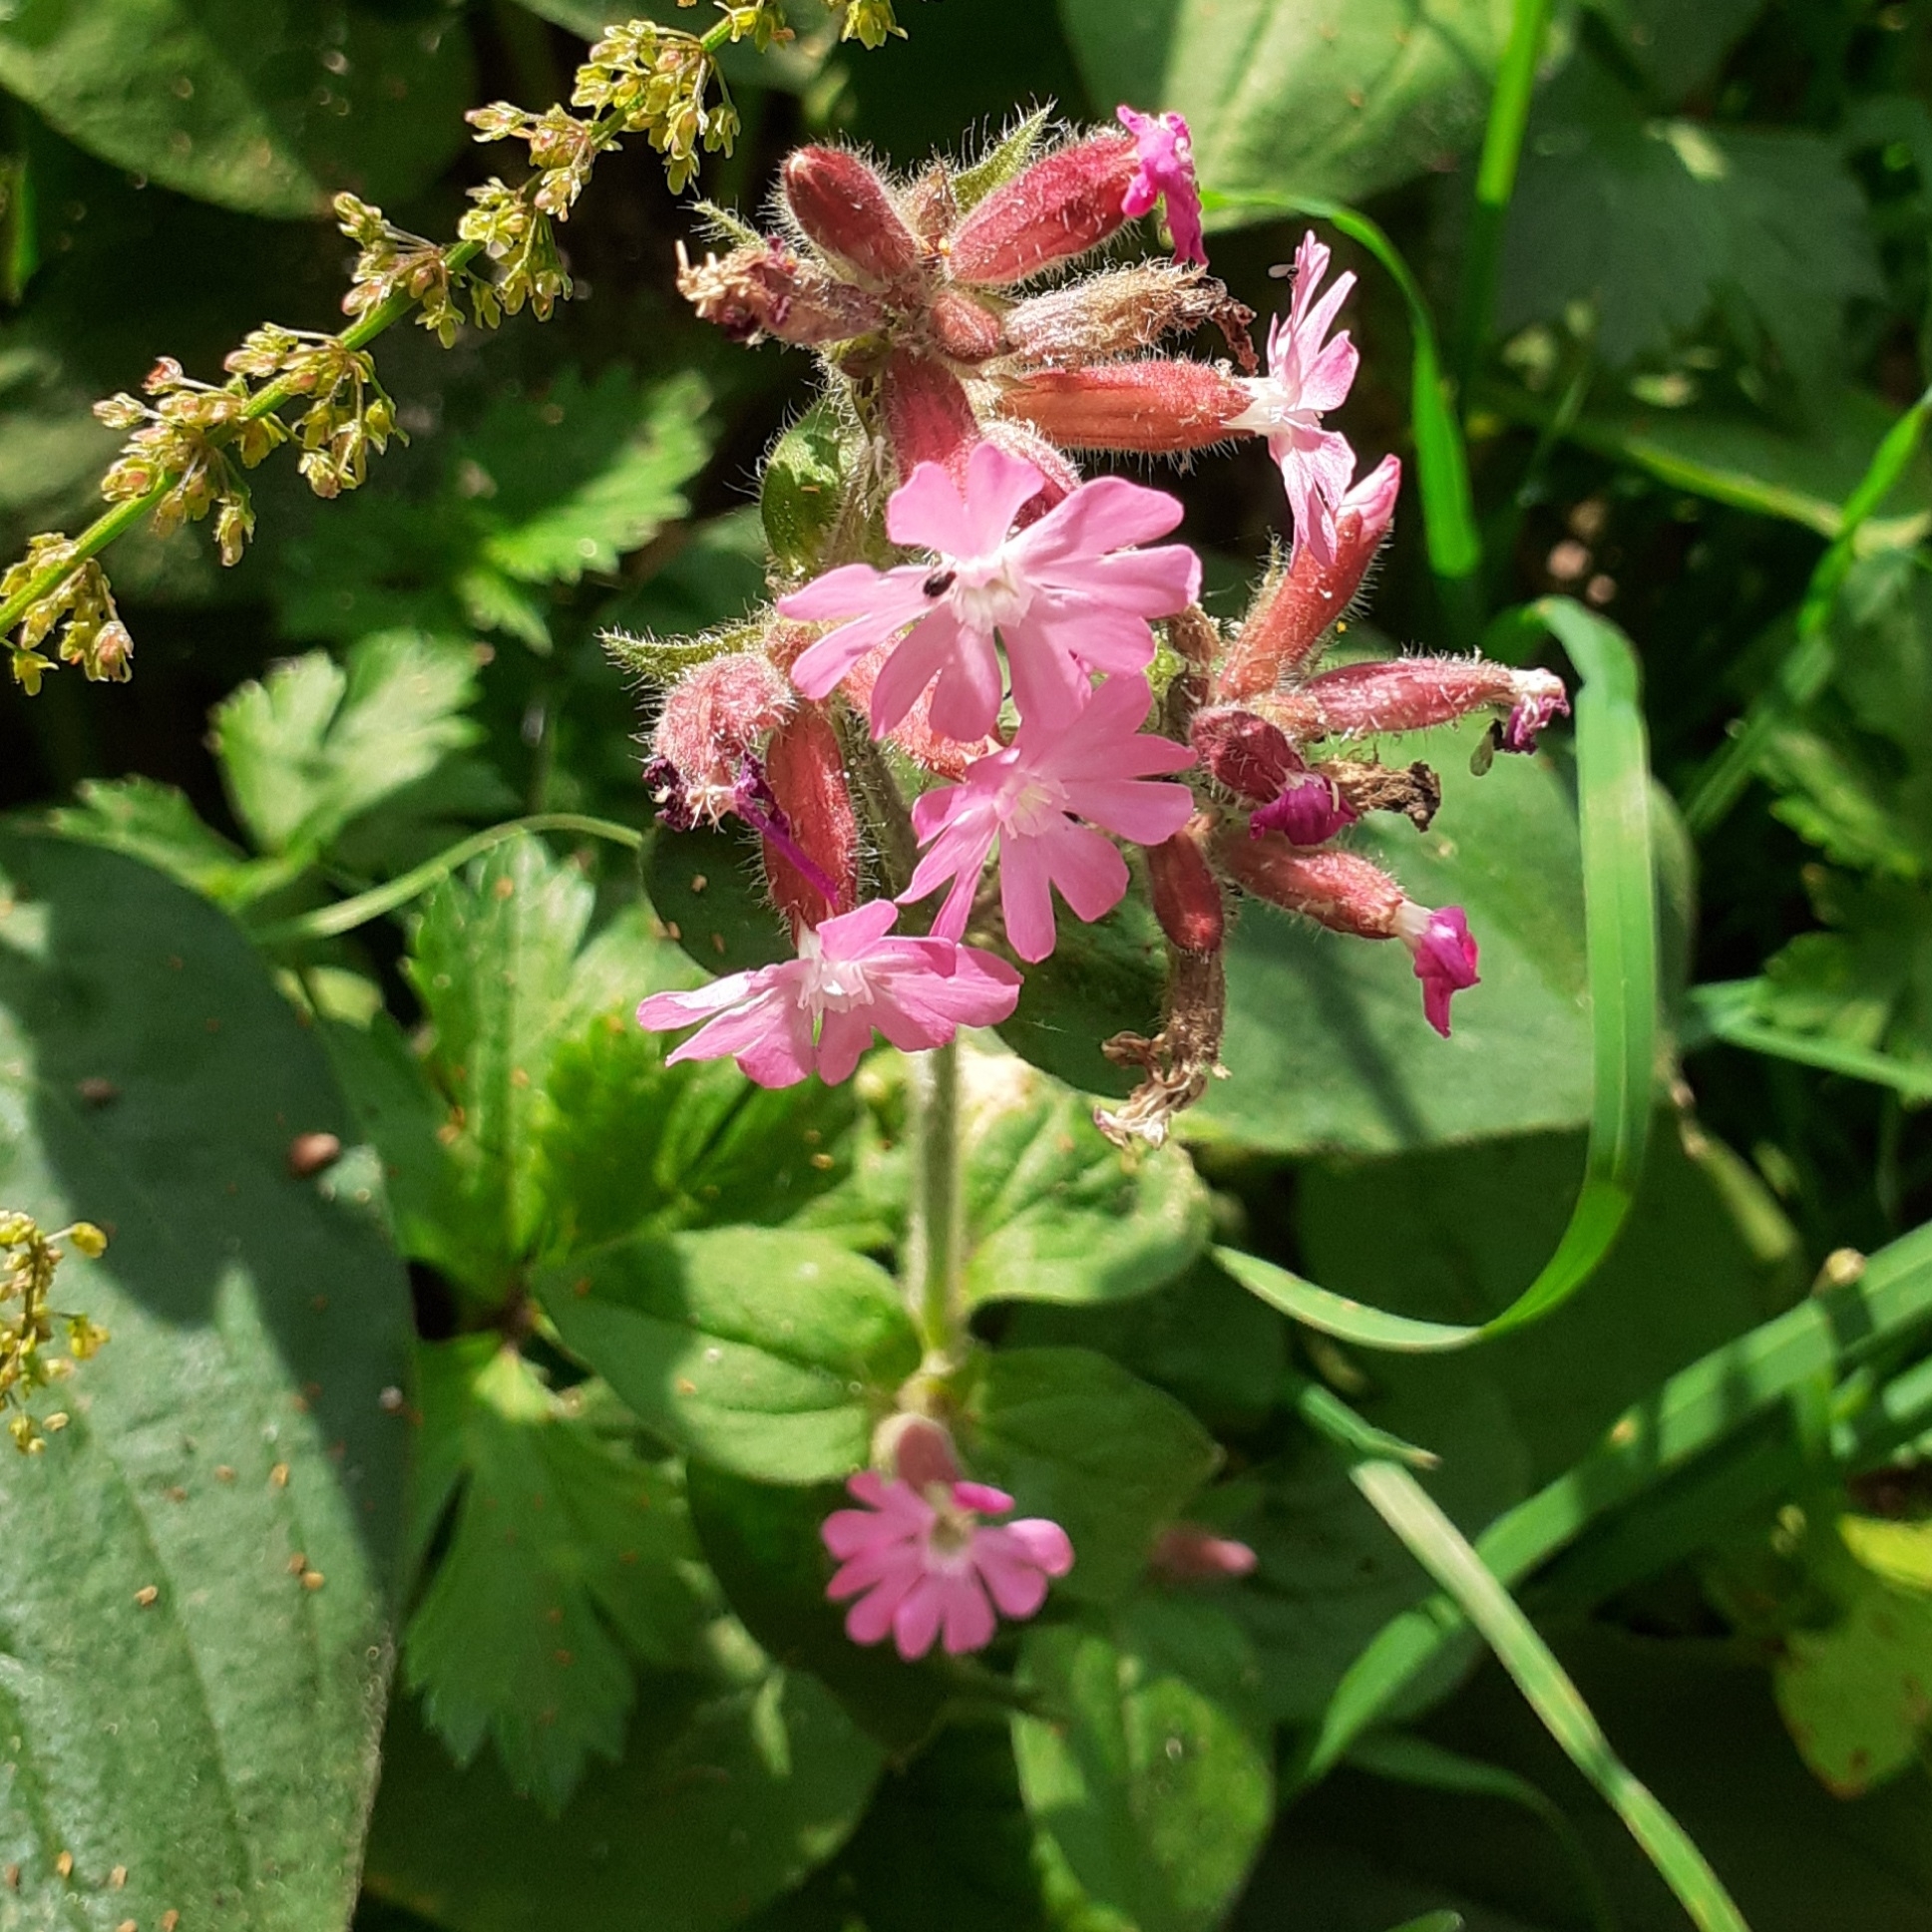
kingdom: Plantae
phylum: Tracheophyta
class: Magnoliopsida
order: Caryophyllales
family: Caryophyllaceae
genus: Silene
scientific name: Silene dioica
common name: Red campion
